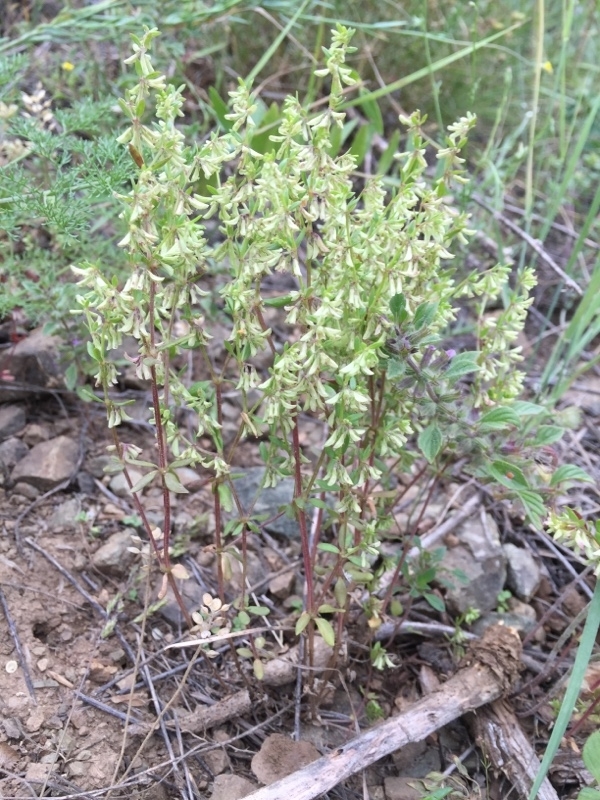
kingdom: Plantae
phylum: Tracheophyta
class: Magnoliopsida
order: Gentianales
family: Rubiaceae
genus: Callipeltis
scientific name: Callipeltis cucullaris
